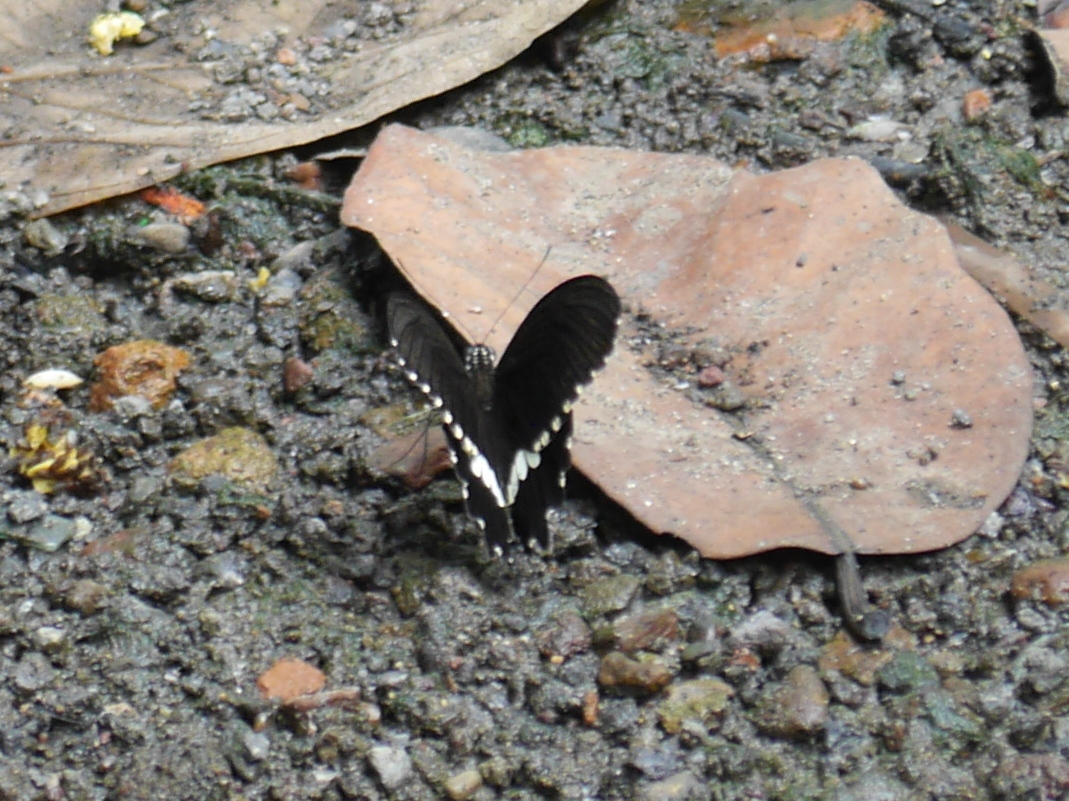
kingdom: Animalia
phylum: Arthropoda
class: Insecta
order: Lepidoptera
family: Papilionidae
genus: Papilio
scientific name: Papilio polytes
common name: Common mormon
